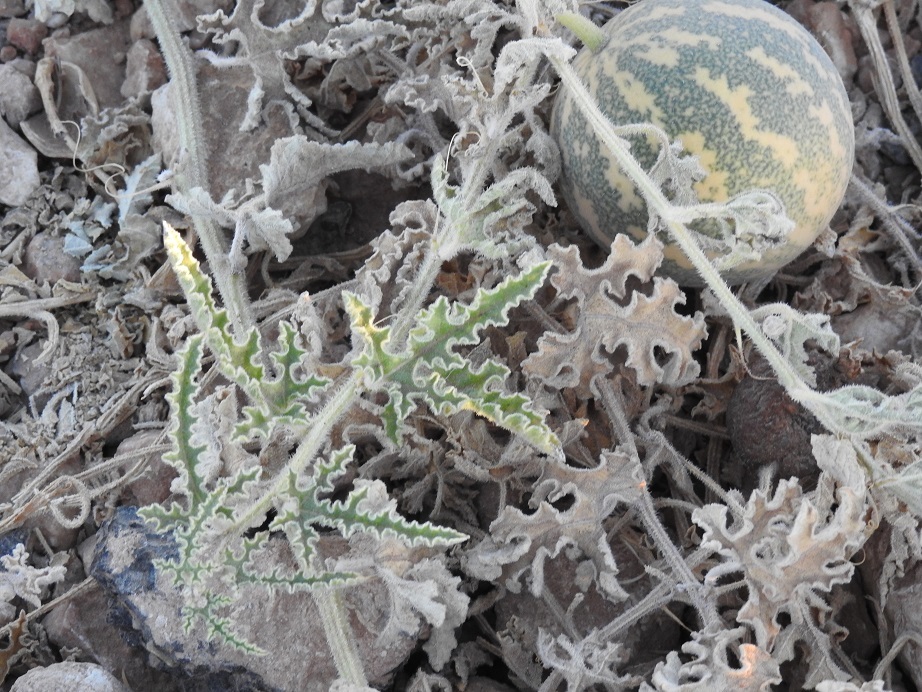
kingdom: Plantae
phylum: Tracheophyta
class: Magnoliopsida
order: Cucurbitales
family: Cucurbitaceae
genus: Citrullus
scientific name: Citrullus colocynthis
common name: Colocynth
